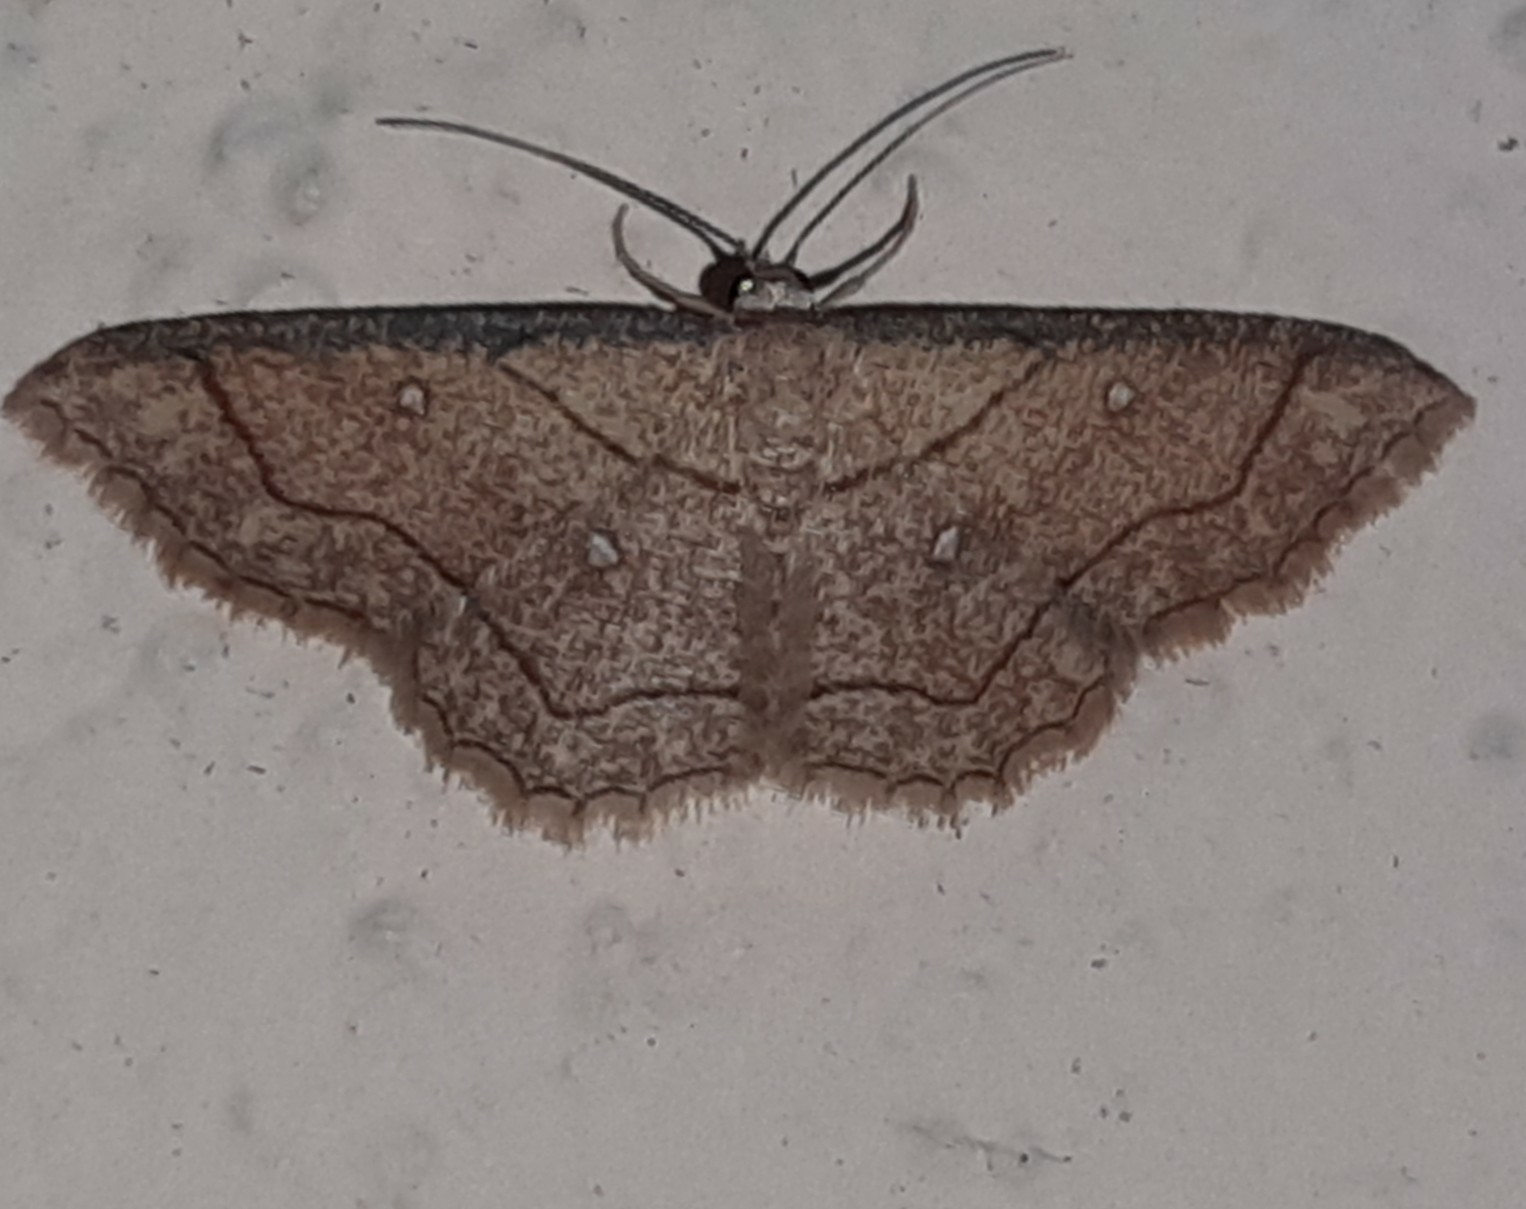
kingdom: Animalia
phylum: Arthropoda
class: Insecta
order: Lepidoptera
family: Geometridae
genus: Cyclophora
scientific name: Cyclophora coecaria
